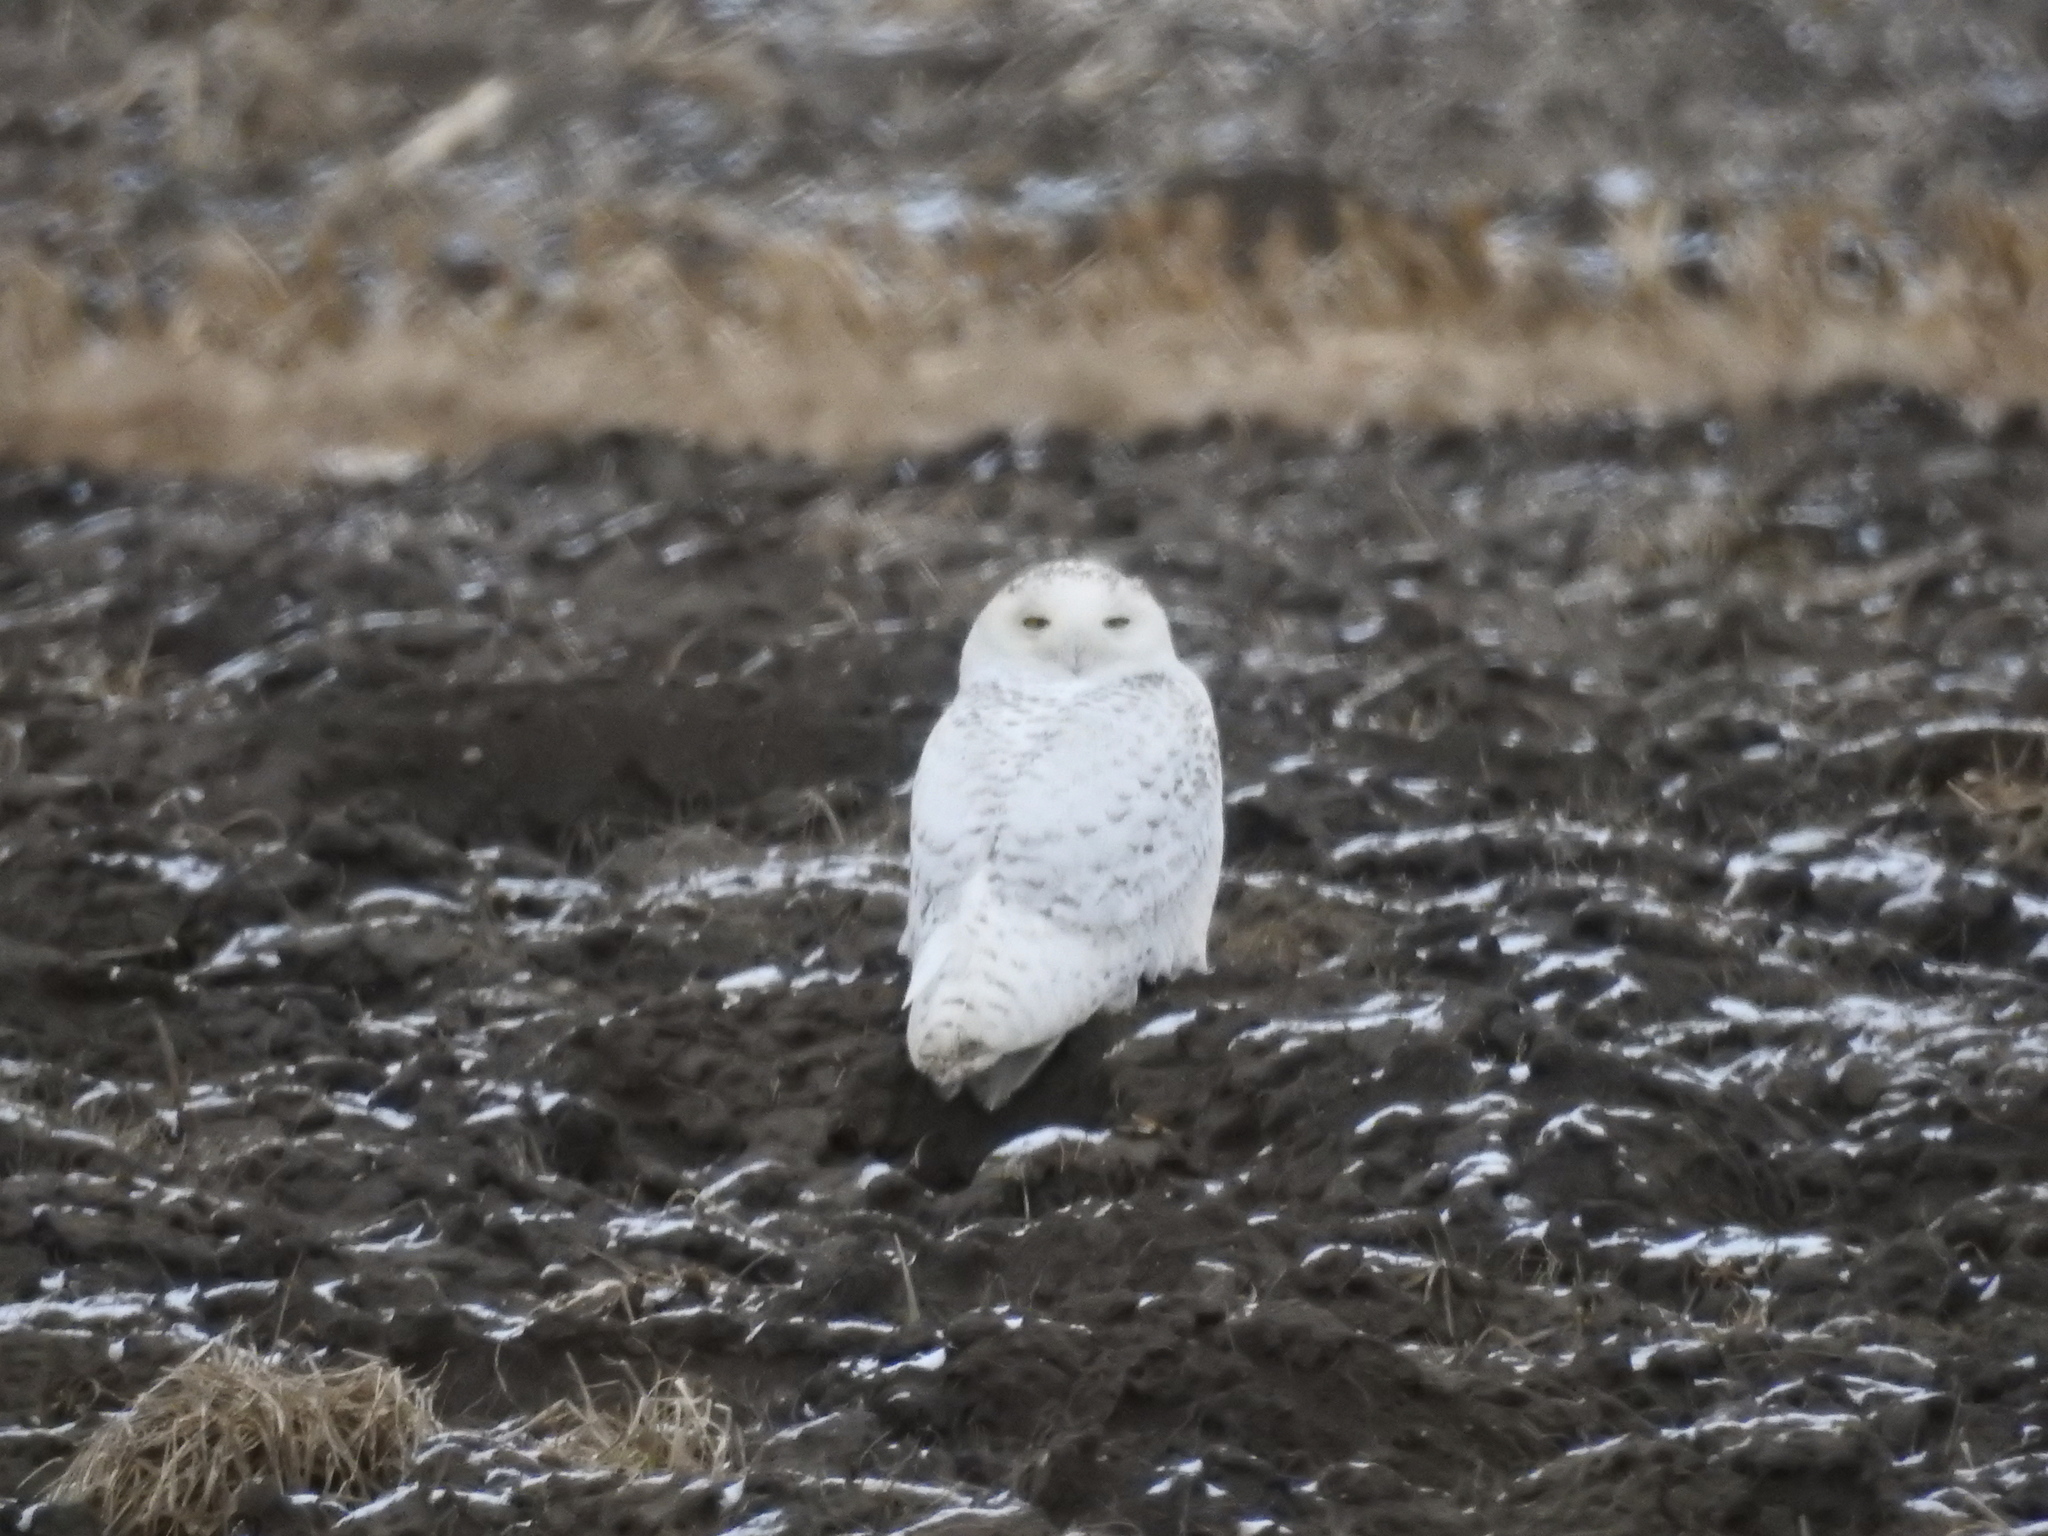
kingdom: Animalia
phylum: Chordata
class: Aves
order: Strigiformes
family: Strigidae
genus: Bubo
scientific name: Bubo scandiacus
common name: Snowy owl
